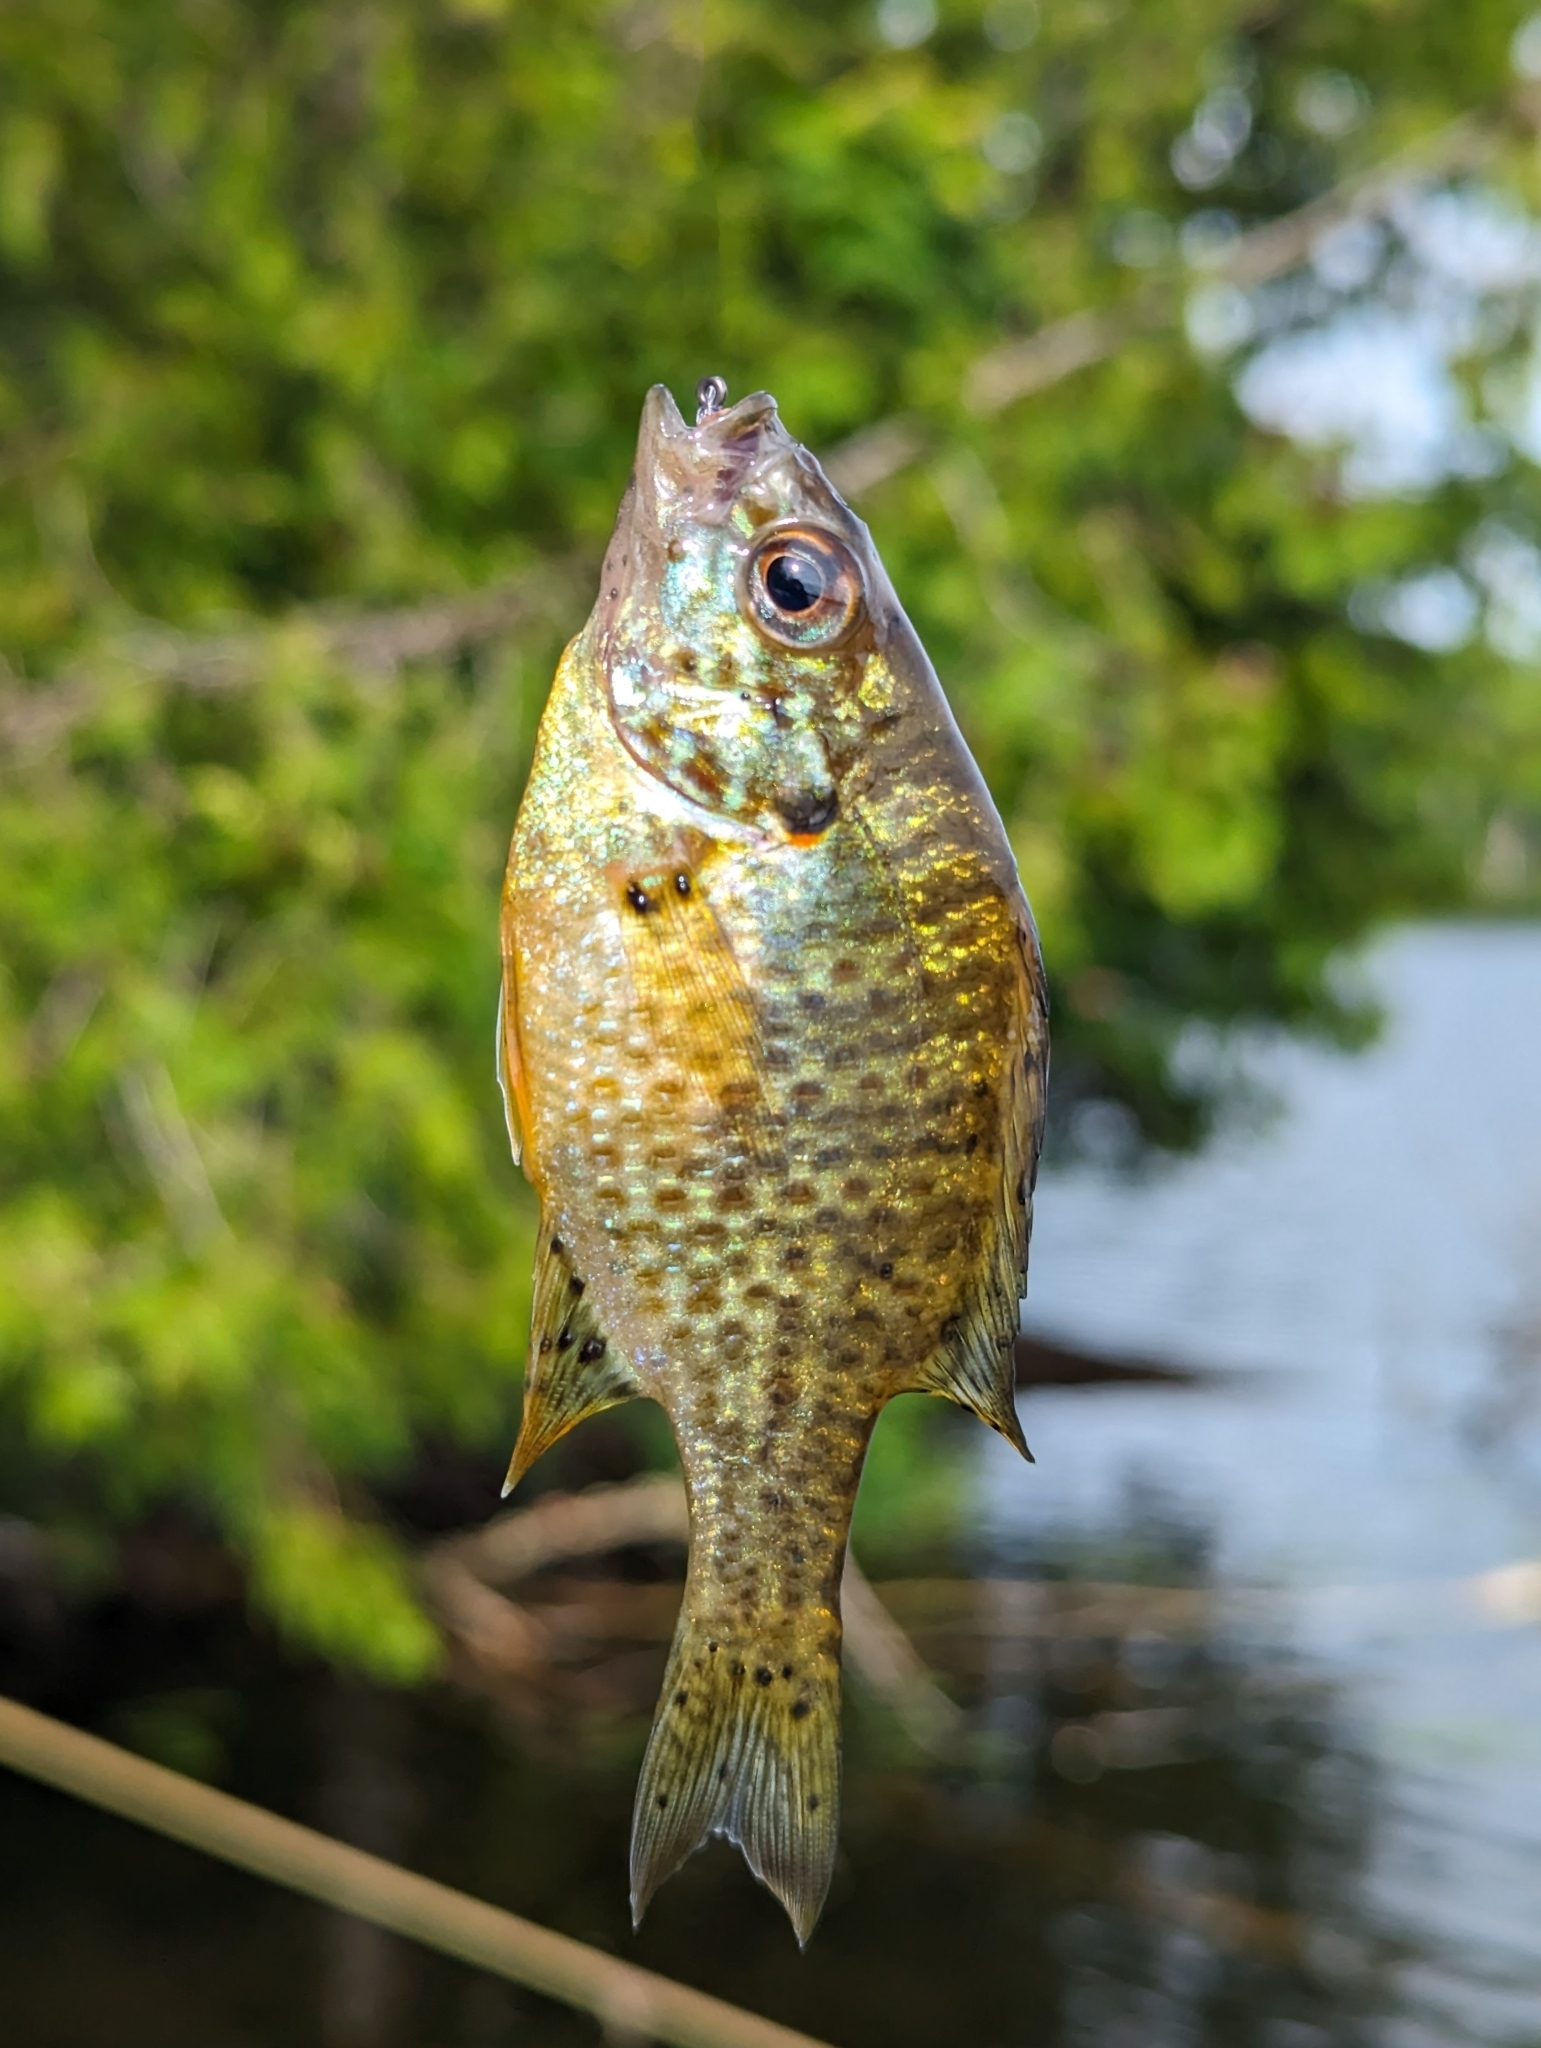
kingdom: Animalia
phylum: Chordata
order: Perciformes
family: Centrarchidae
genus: Lepomis
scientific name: Lepomis gibbosus
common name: Pumpkinseed
